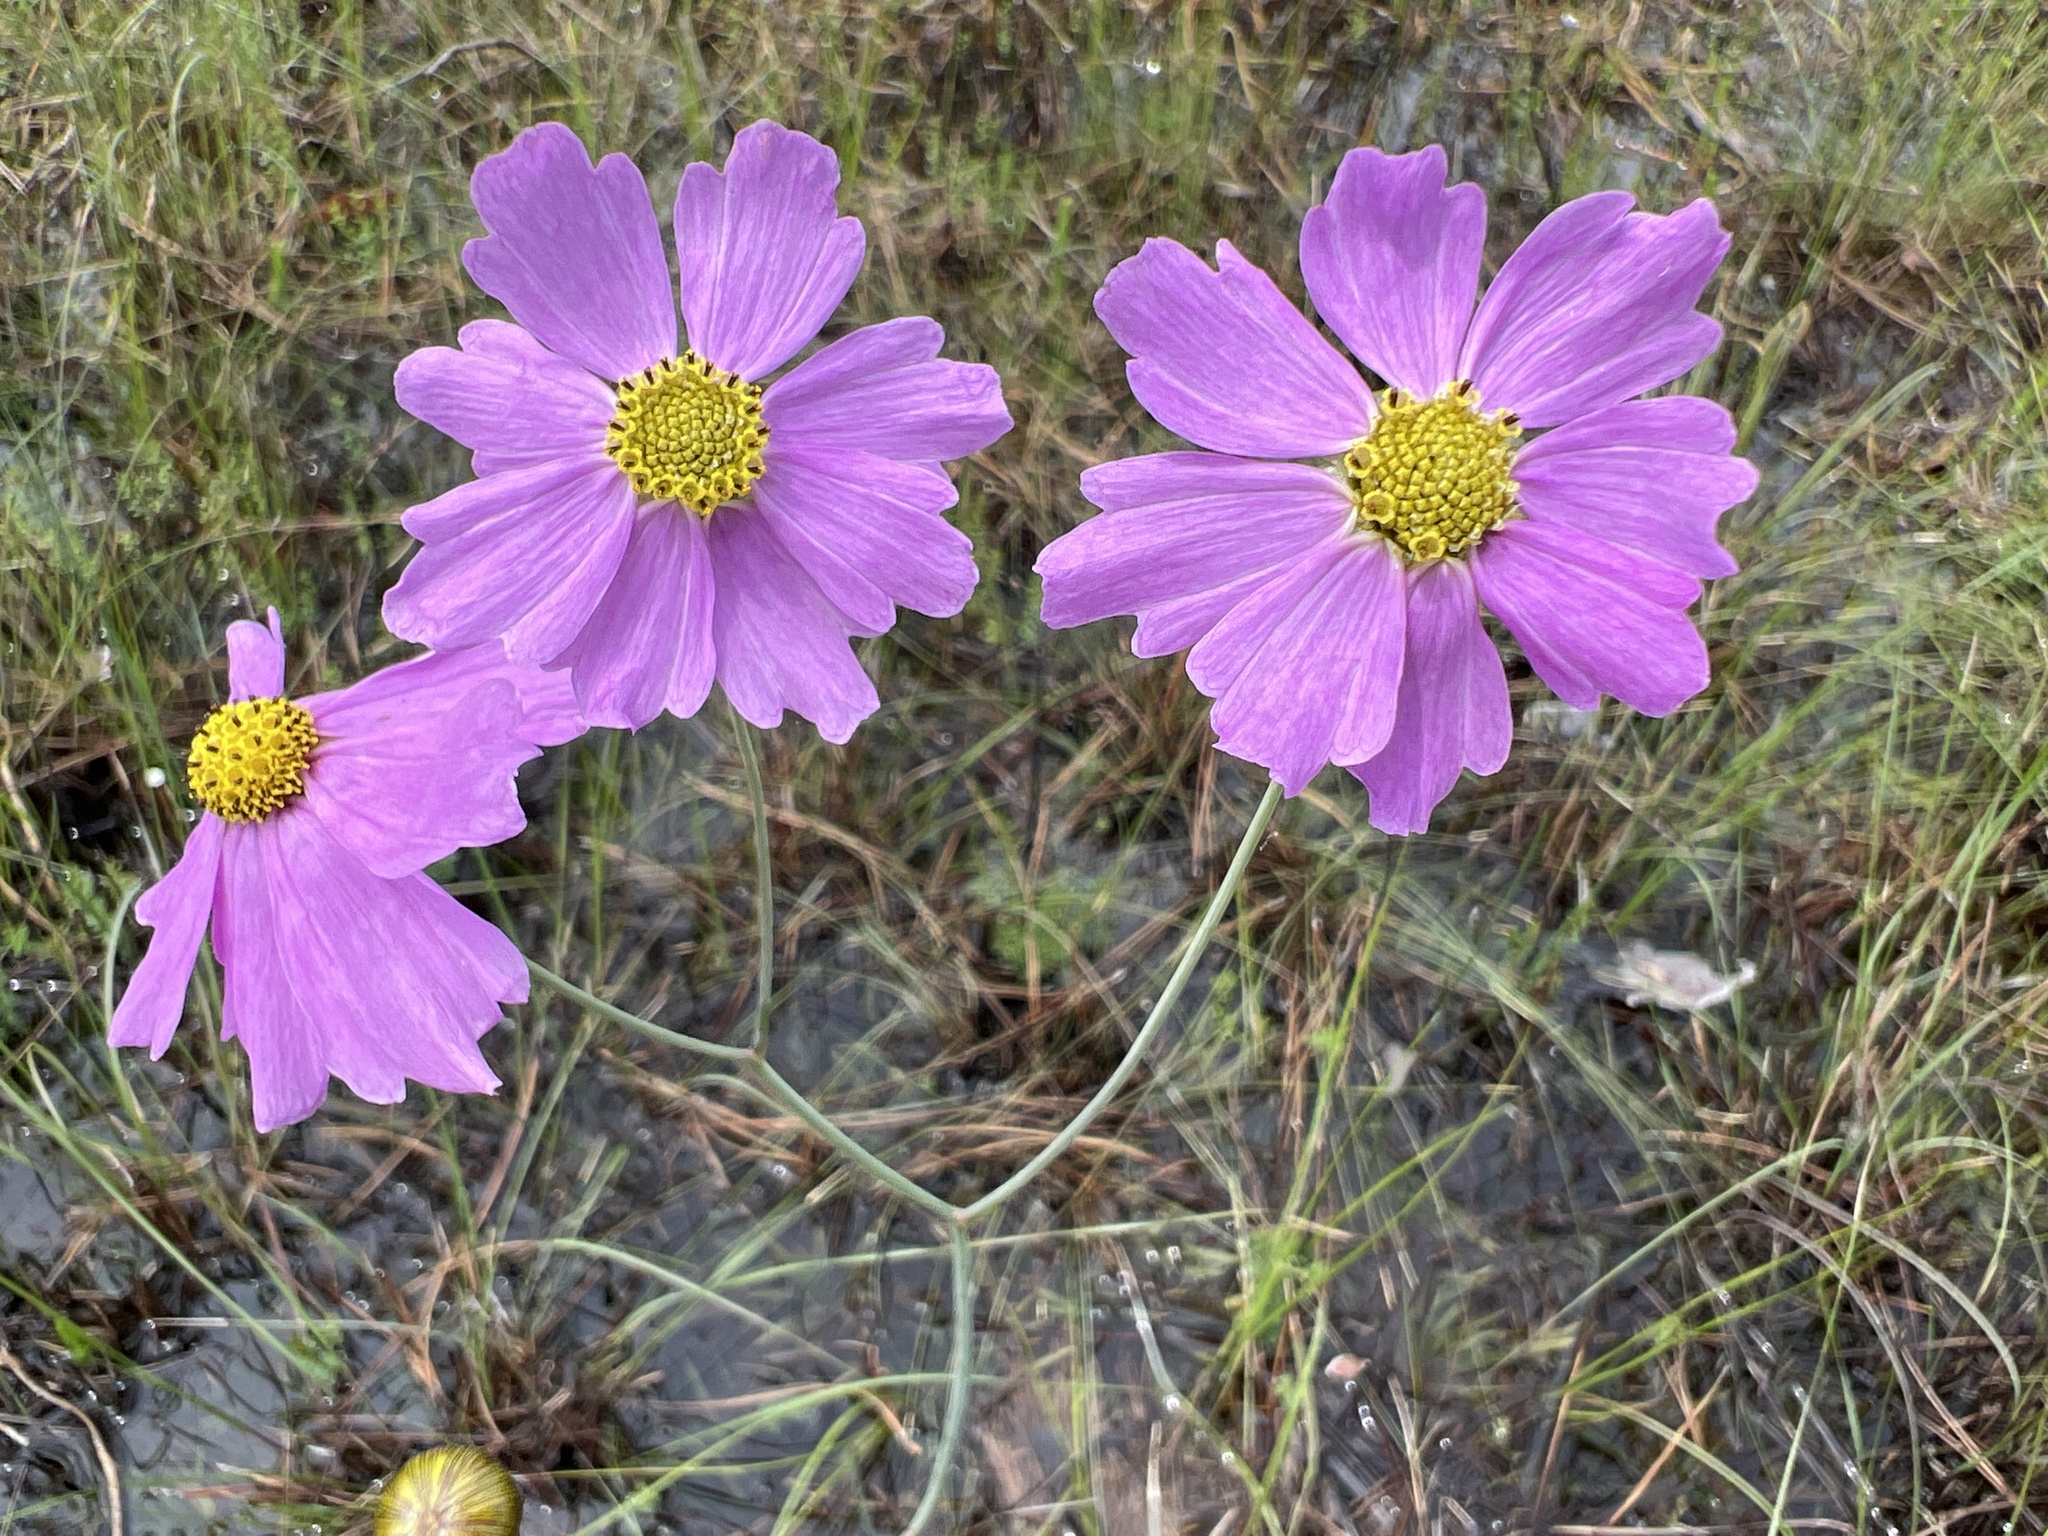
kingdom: Plantae
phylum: Tracheophyta
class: Magnoliopsida
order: Asterales
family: Asteraceae
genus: Coreopsis
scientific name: Coreopsis nudata
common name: Purple tickseed
